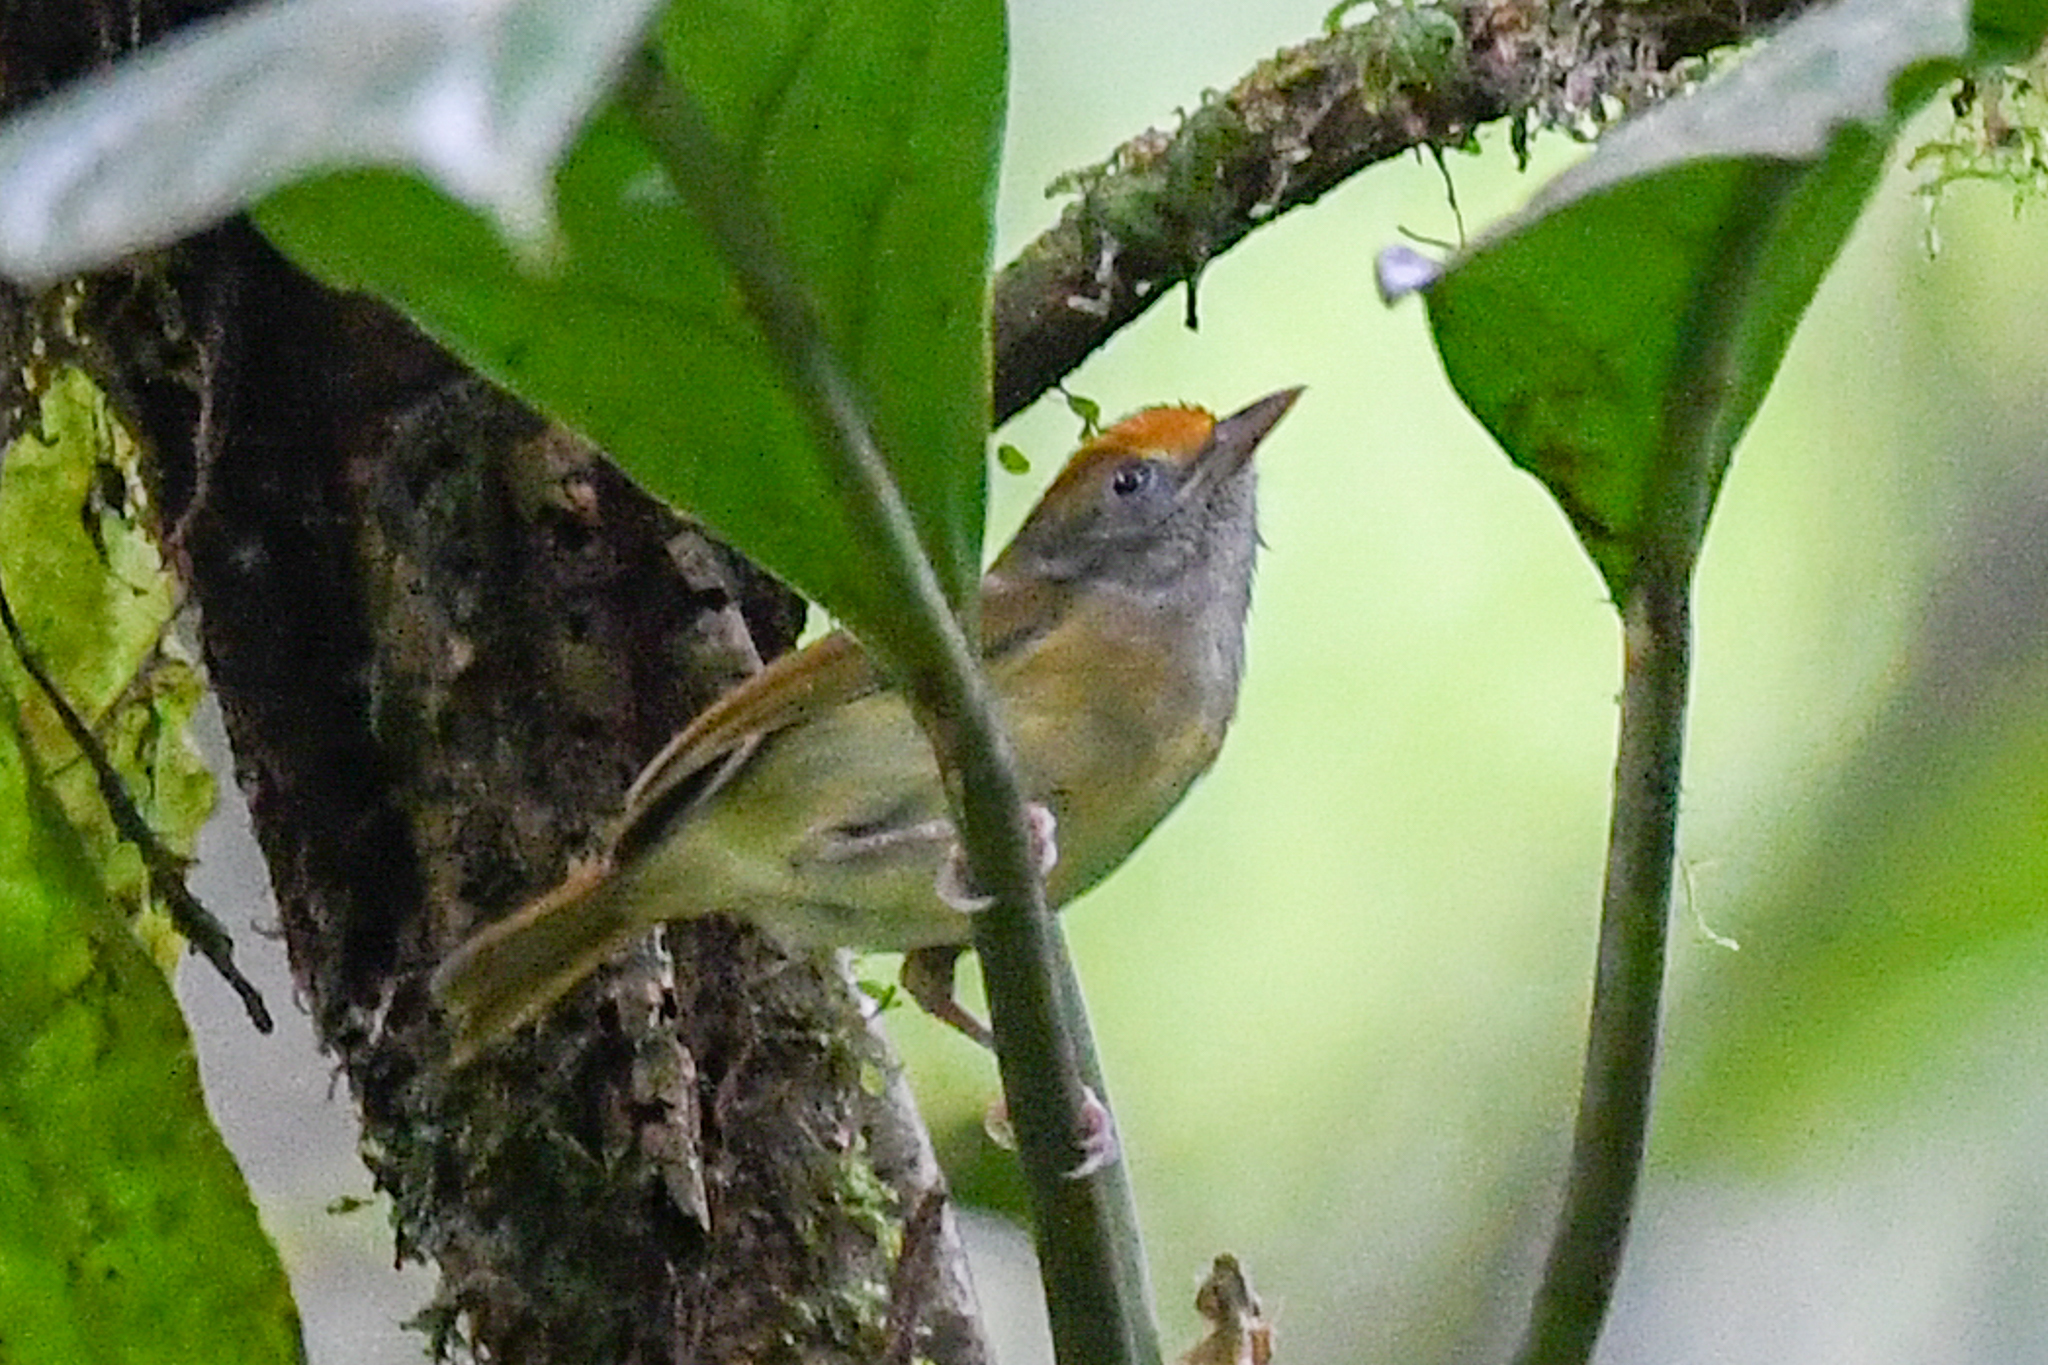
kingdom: Animalia
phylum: Chordata
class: Aves
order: Passeriformes
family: Vireonidae
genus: Hylophilus
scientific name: Hylophilus ochraceiceps
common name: Tawny-crowned greenlet
